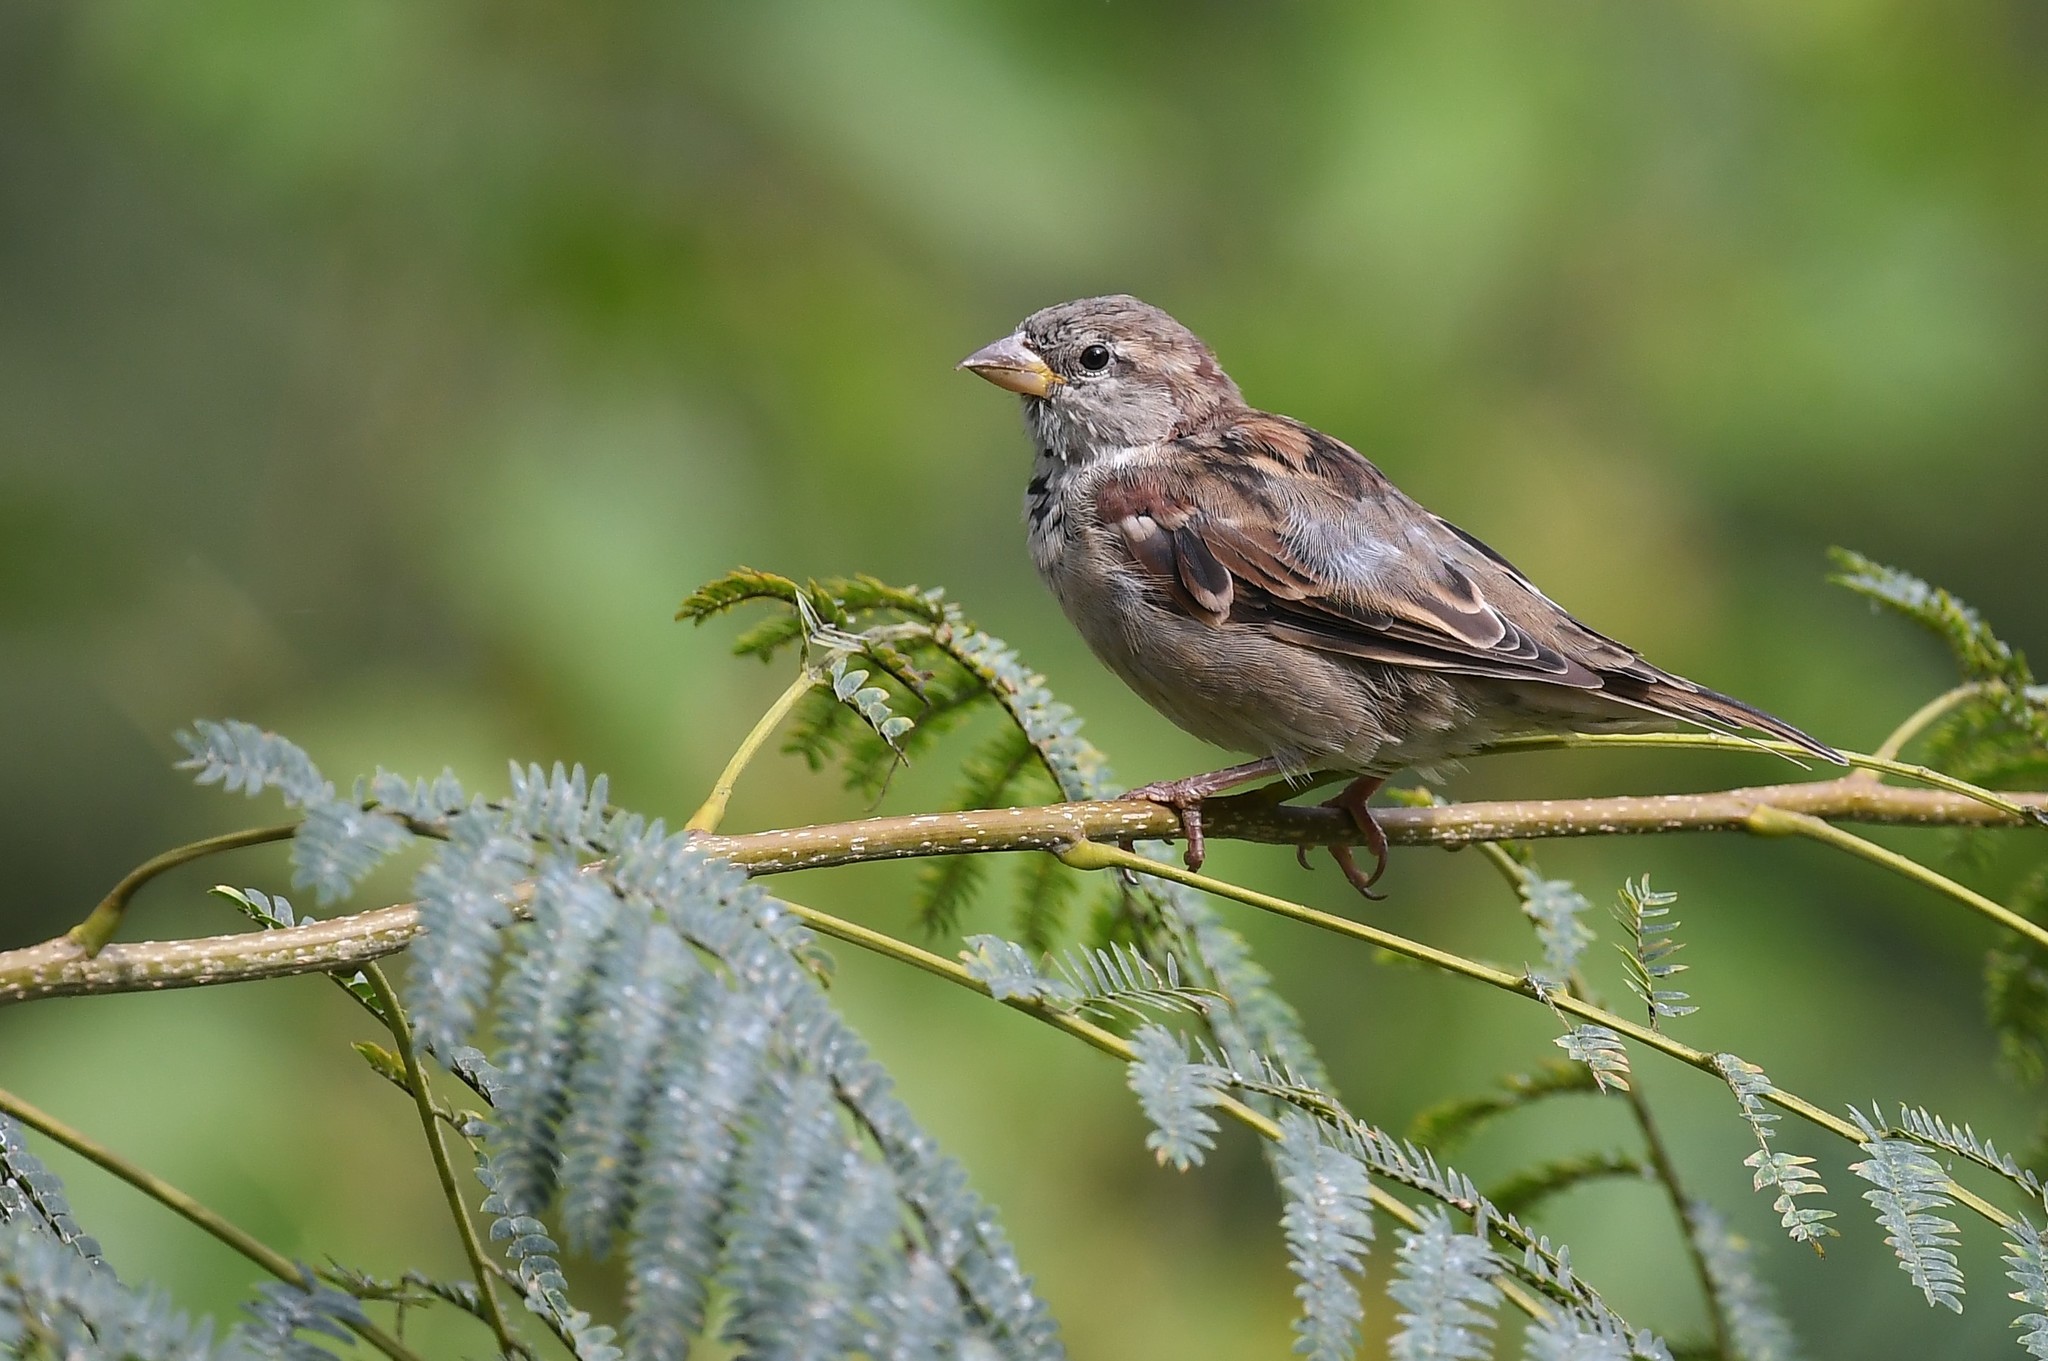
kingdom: Animalia
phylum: Chordata
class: Aves
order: Passeriformes
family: Passeridae
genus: Passer
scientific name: Passer domesticus
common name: House sparrow
